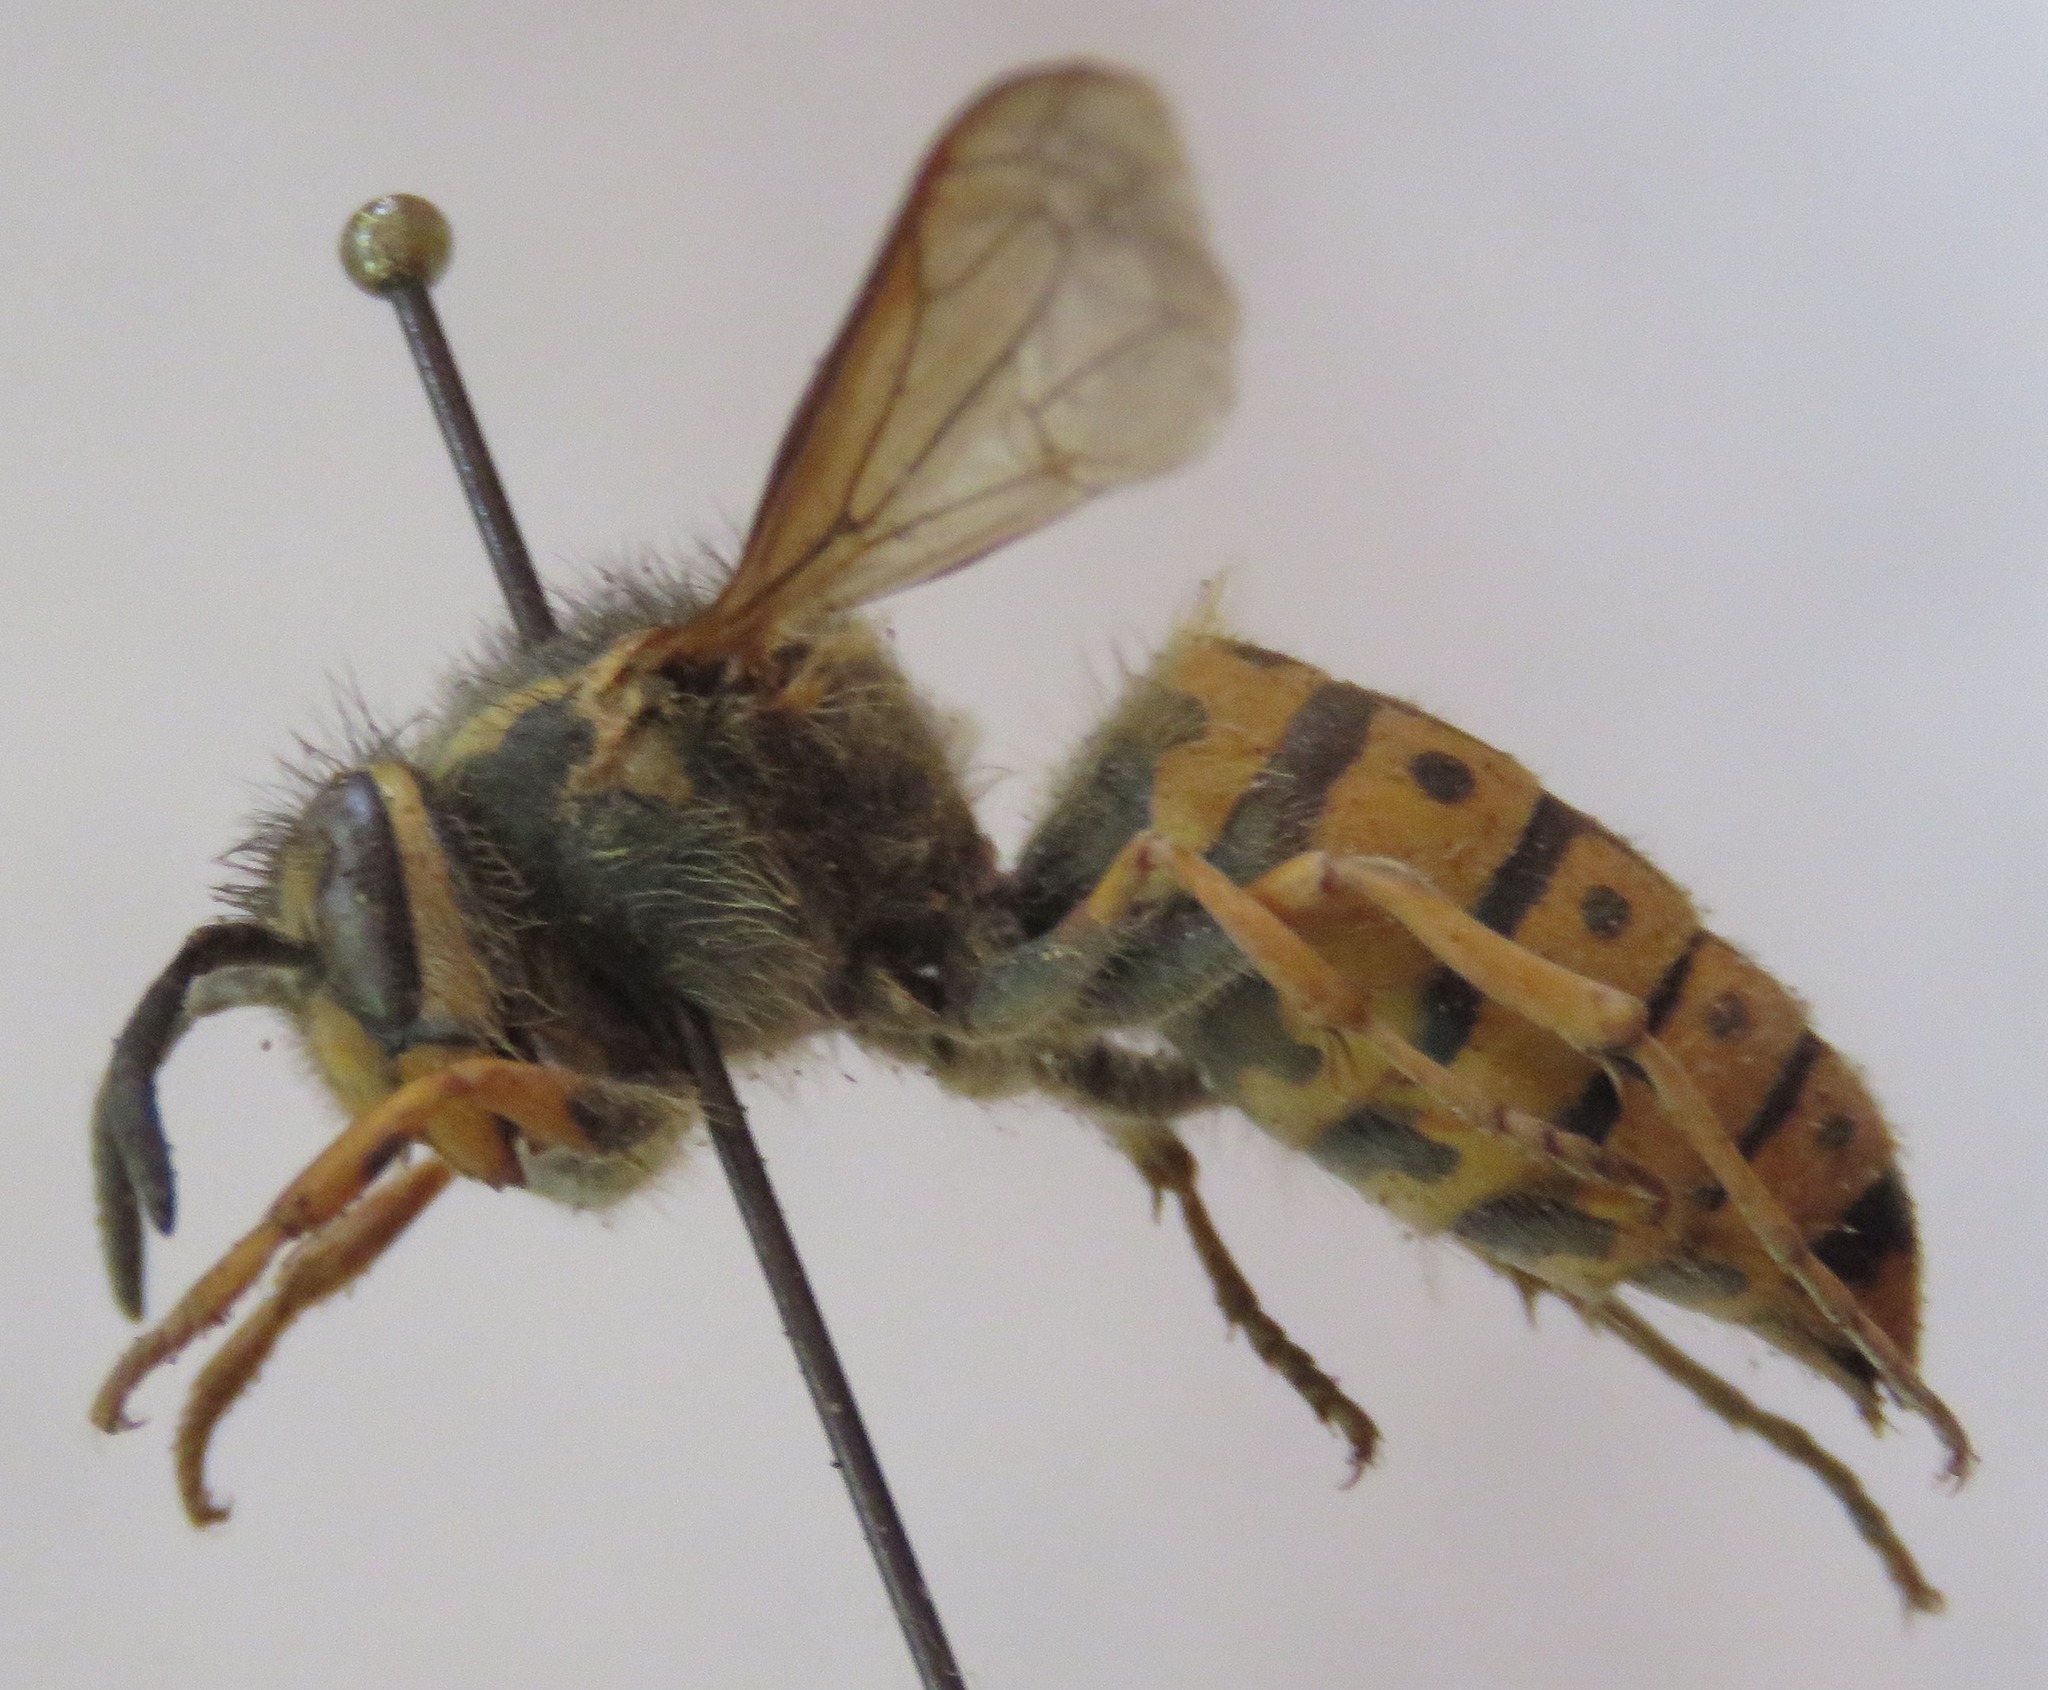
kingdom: Animalia
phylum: Arthropoda
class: Insecta
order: Hymenoptera
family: Vespidae
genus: Vespula
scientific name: Vespula germanica
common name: German wasp
